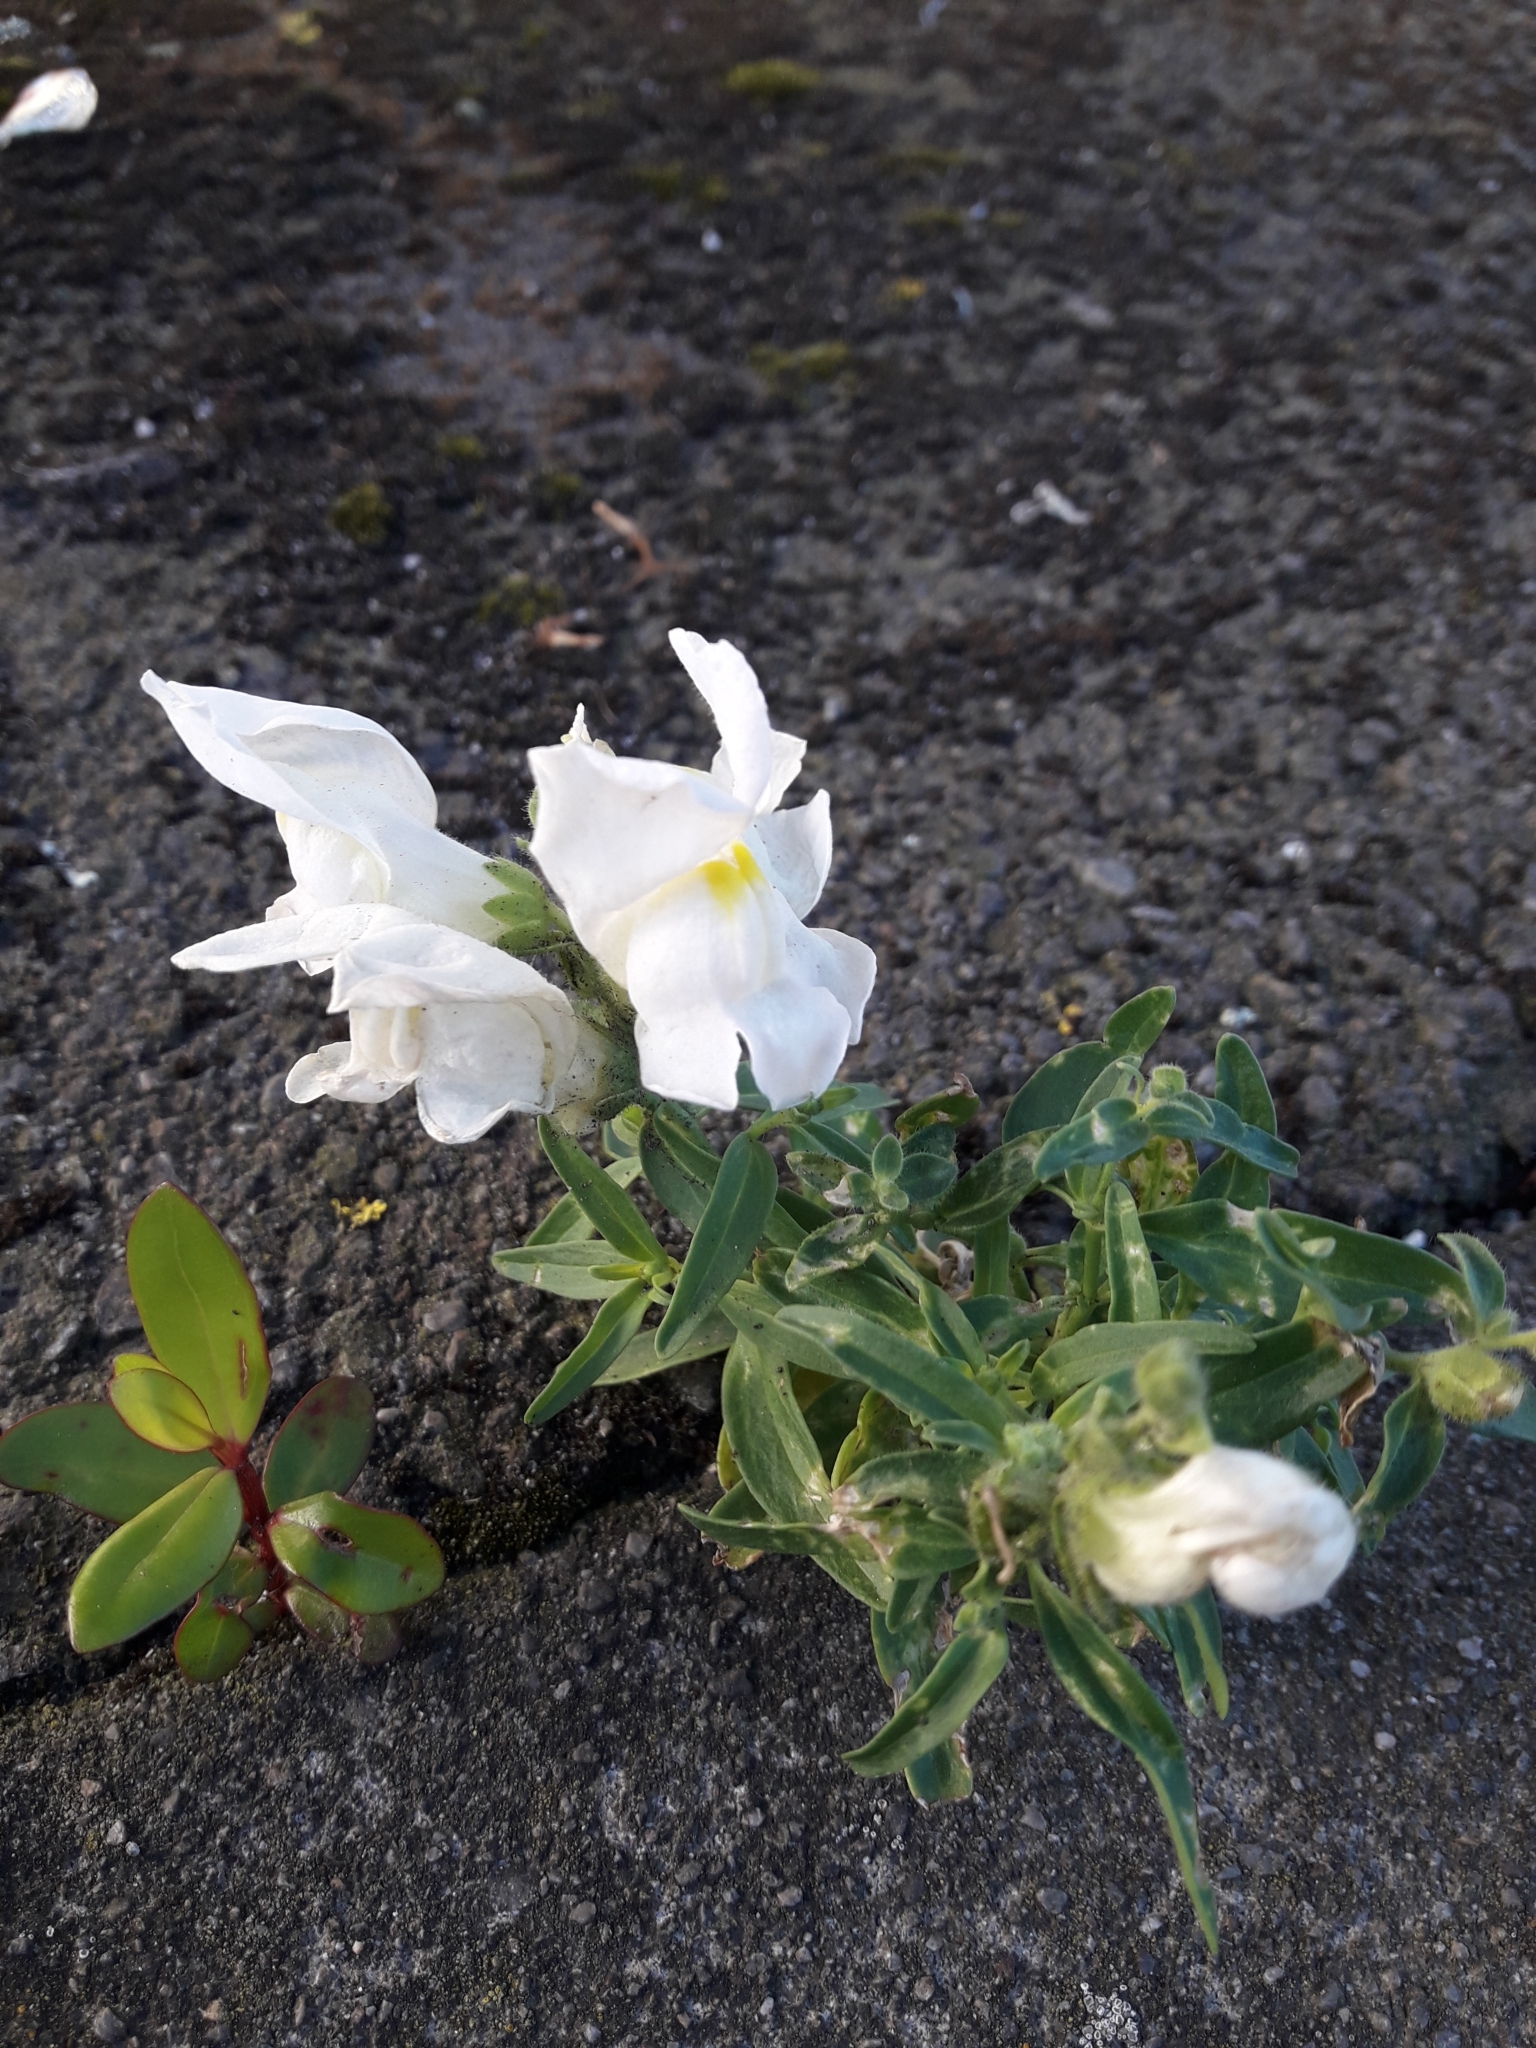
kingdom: Plantae
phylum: Tracheophyta
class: Magnoliopsida
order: Lamiales
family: Plantaginaceae
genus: Antirrhinum
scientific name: Antirrhinum majus
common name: Snapdragon
